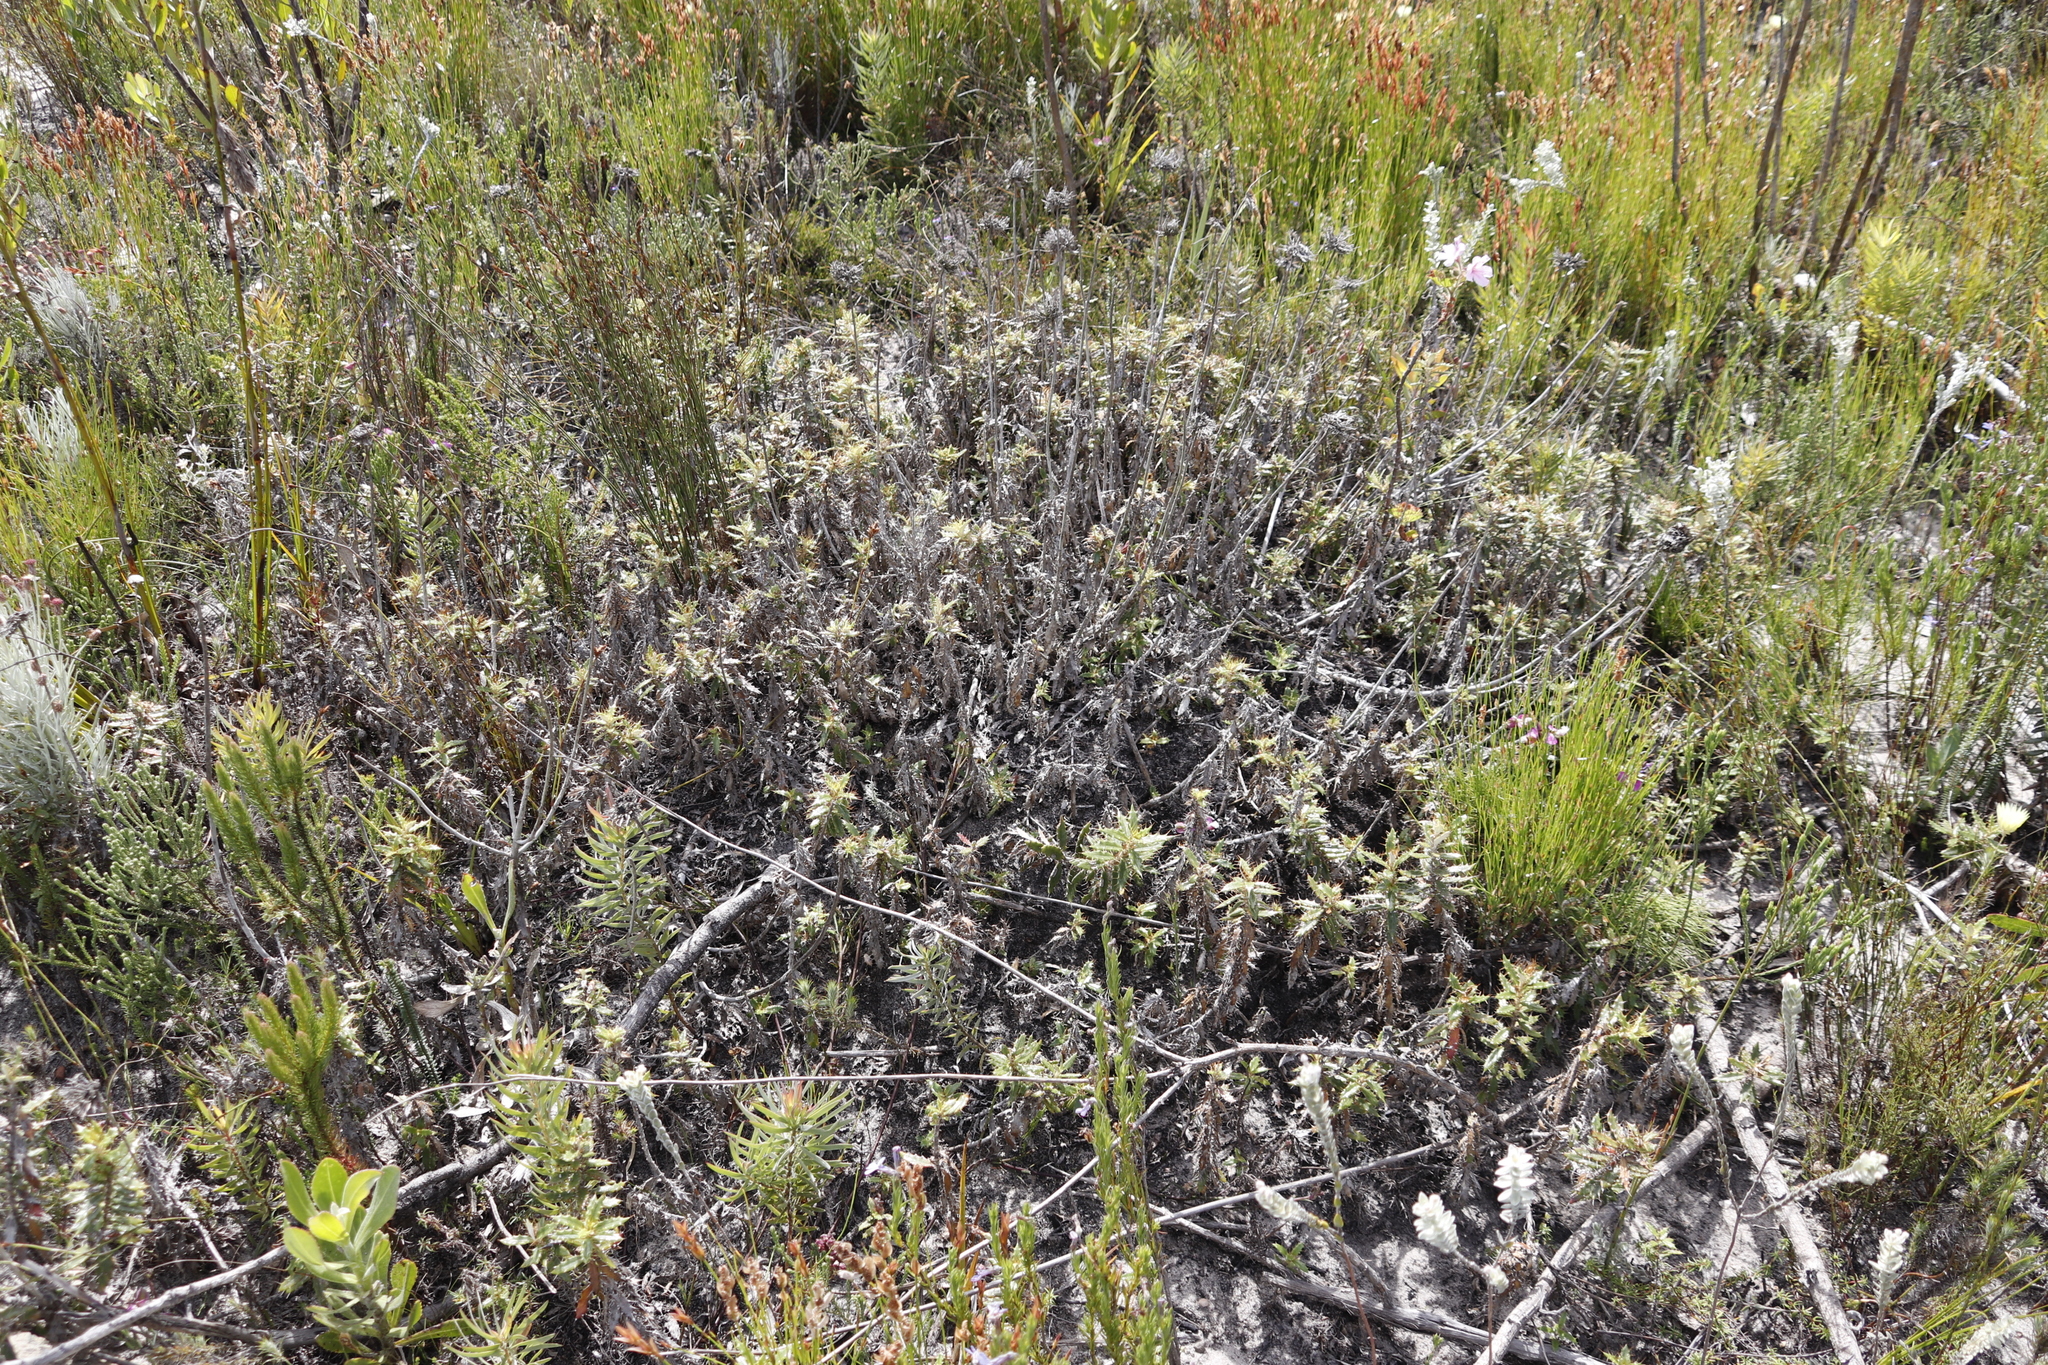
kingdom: Plantae
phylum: Tracheophyta
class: Magnoliopsida
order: Asterales
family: Asteraceae
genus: Berkheya
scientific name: Berkheya barbata
